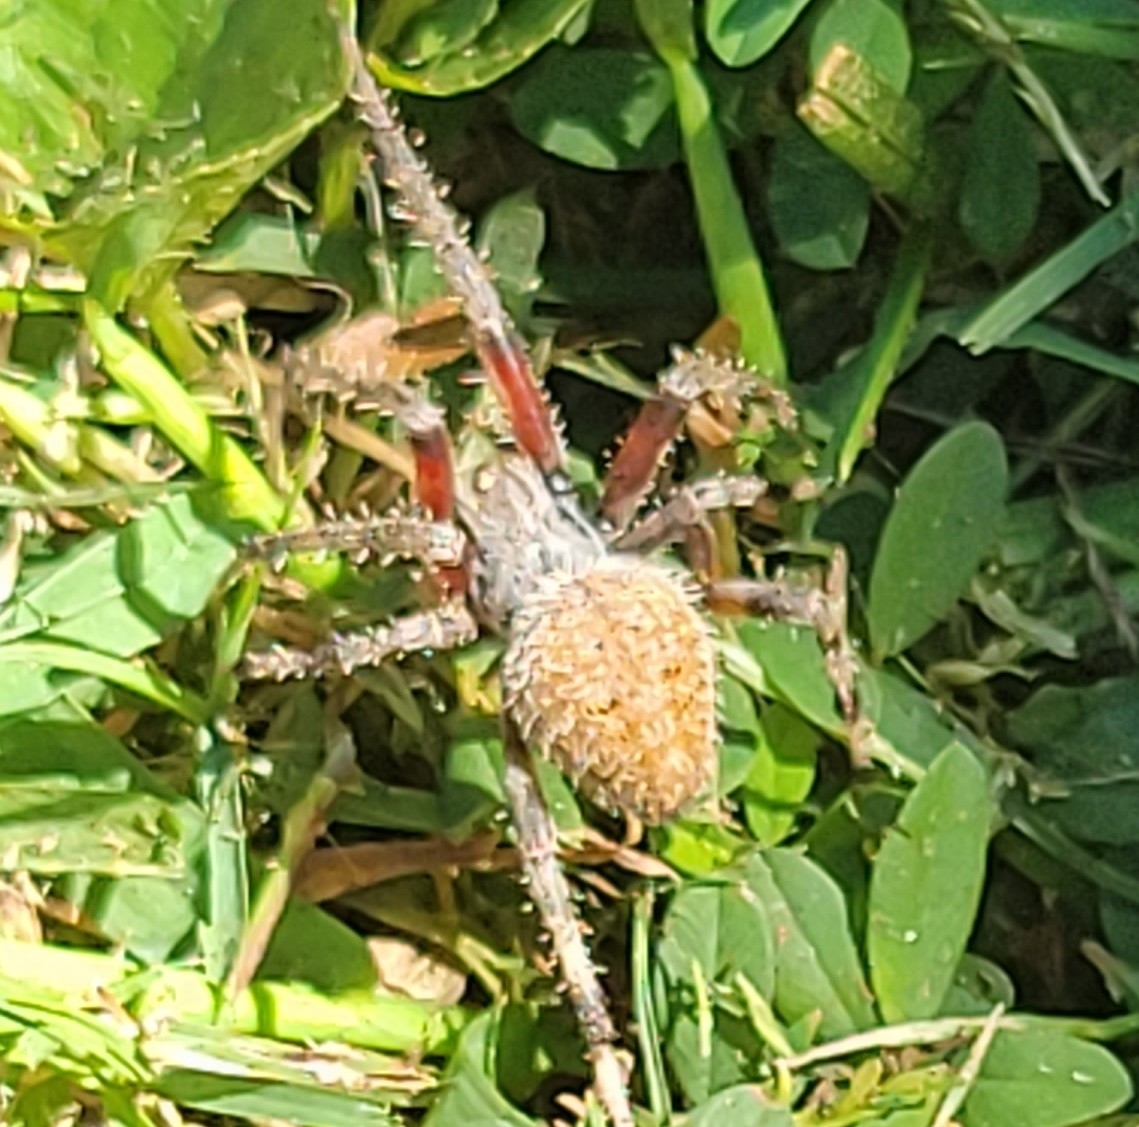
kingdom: Animalia
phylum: Arthropoda
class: Arachnida
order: Araneae
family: Araneidae
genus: Neoscona
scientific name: Neoscona crucifera
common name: Spotted orbweaver
